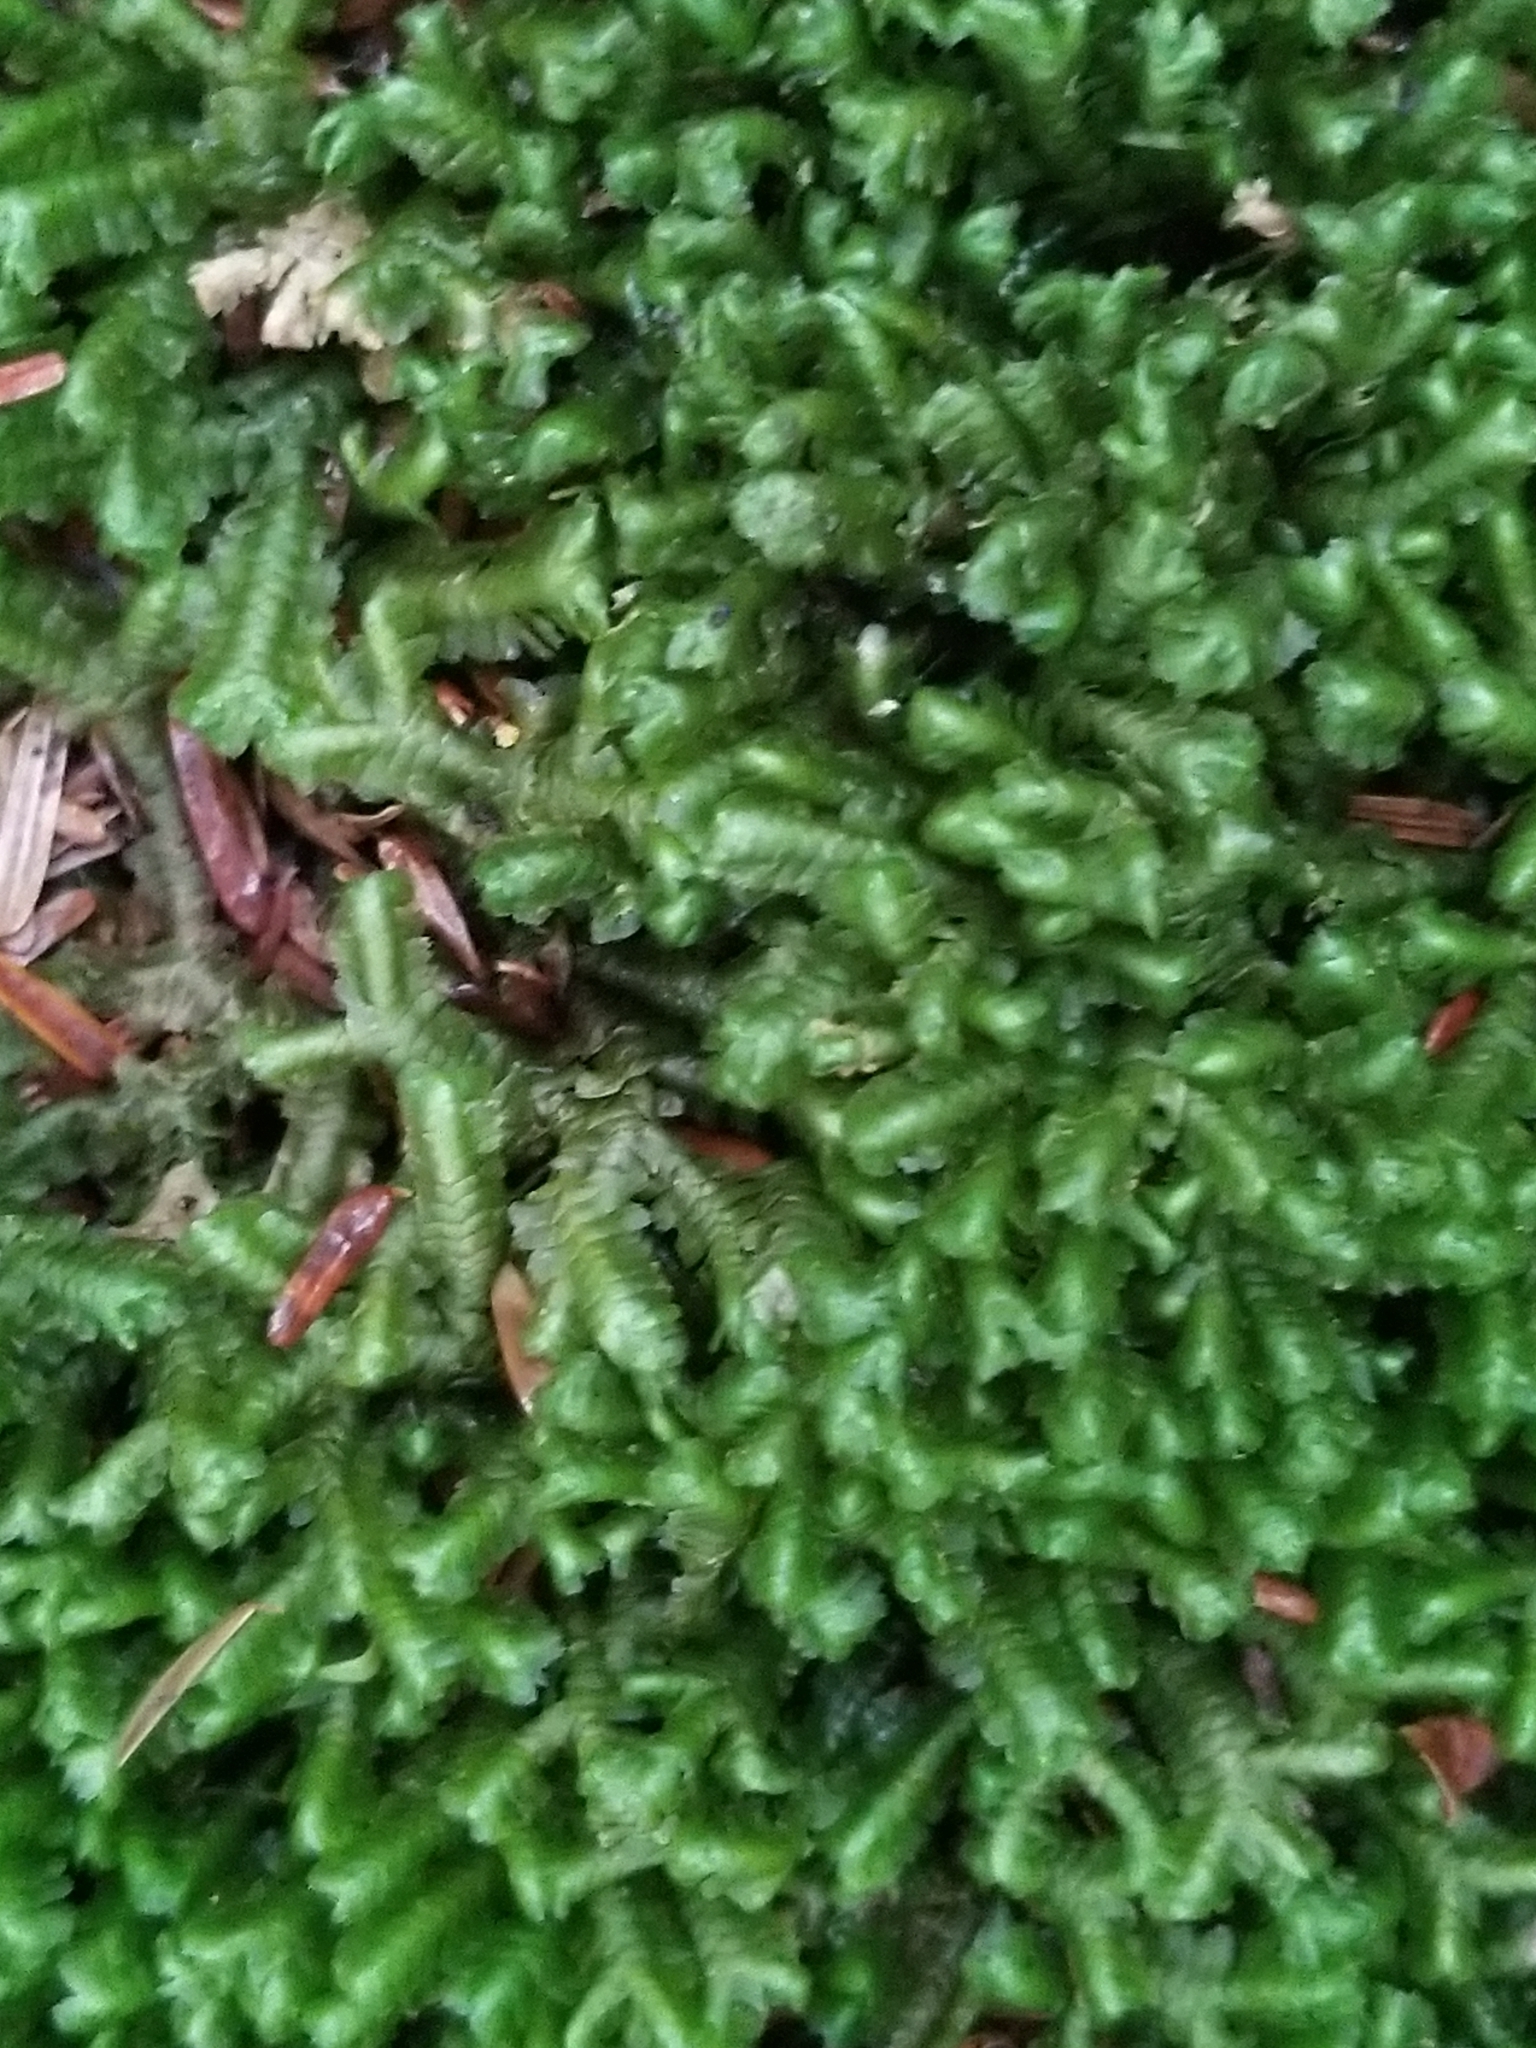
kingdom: Plantae
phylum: Marchantiophyta
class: Jungermanniopsida
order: Jungermanniales
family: Lepidoziaceae
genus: Bazzania
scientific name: Bazzania trilobata
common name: Three-lobed whipwort
